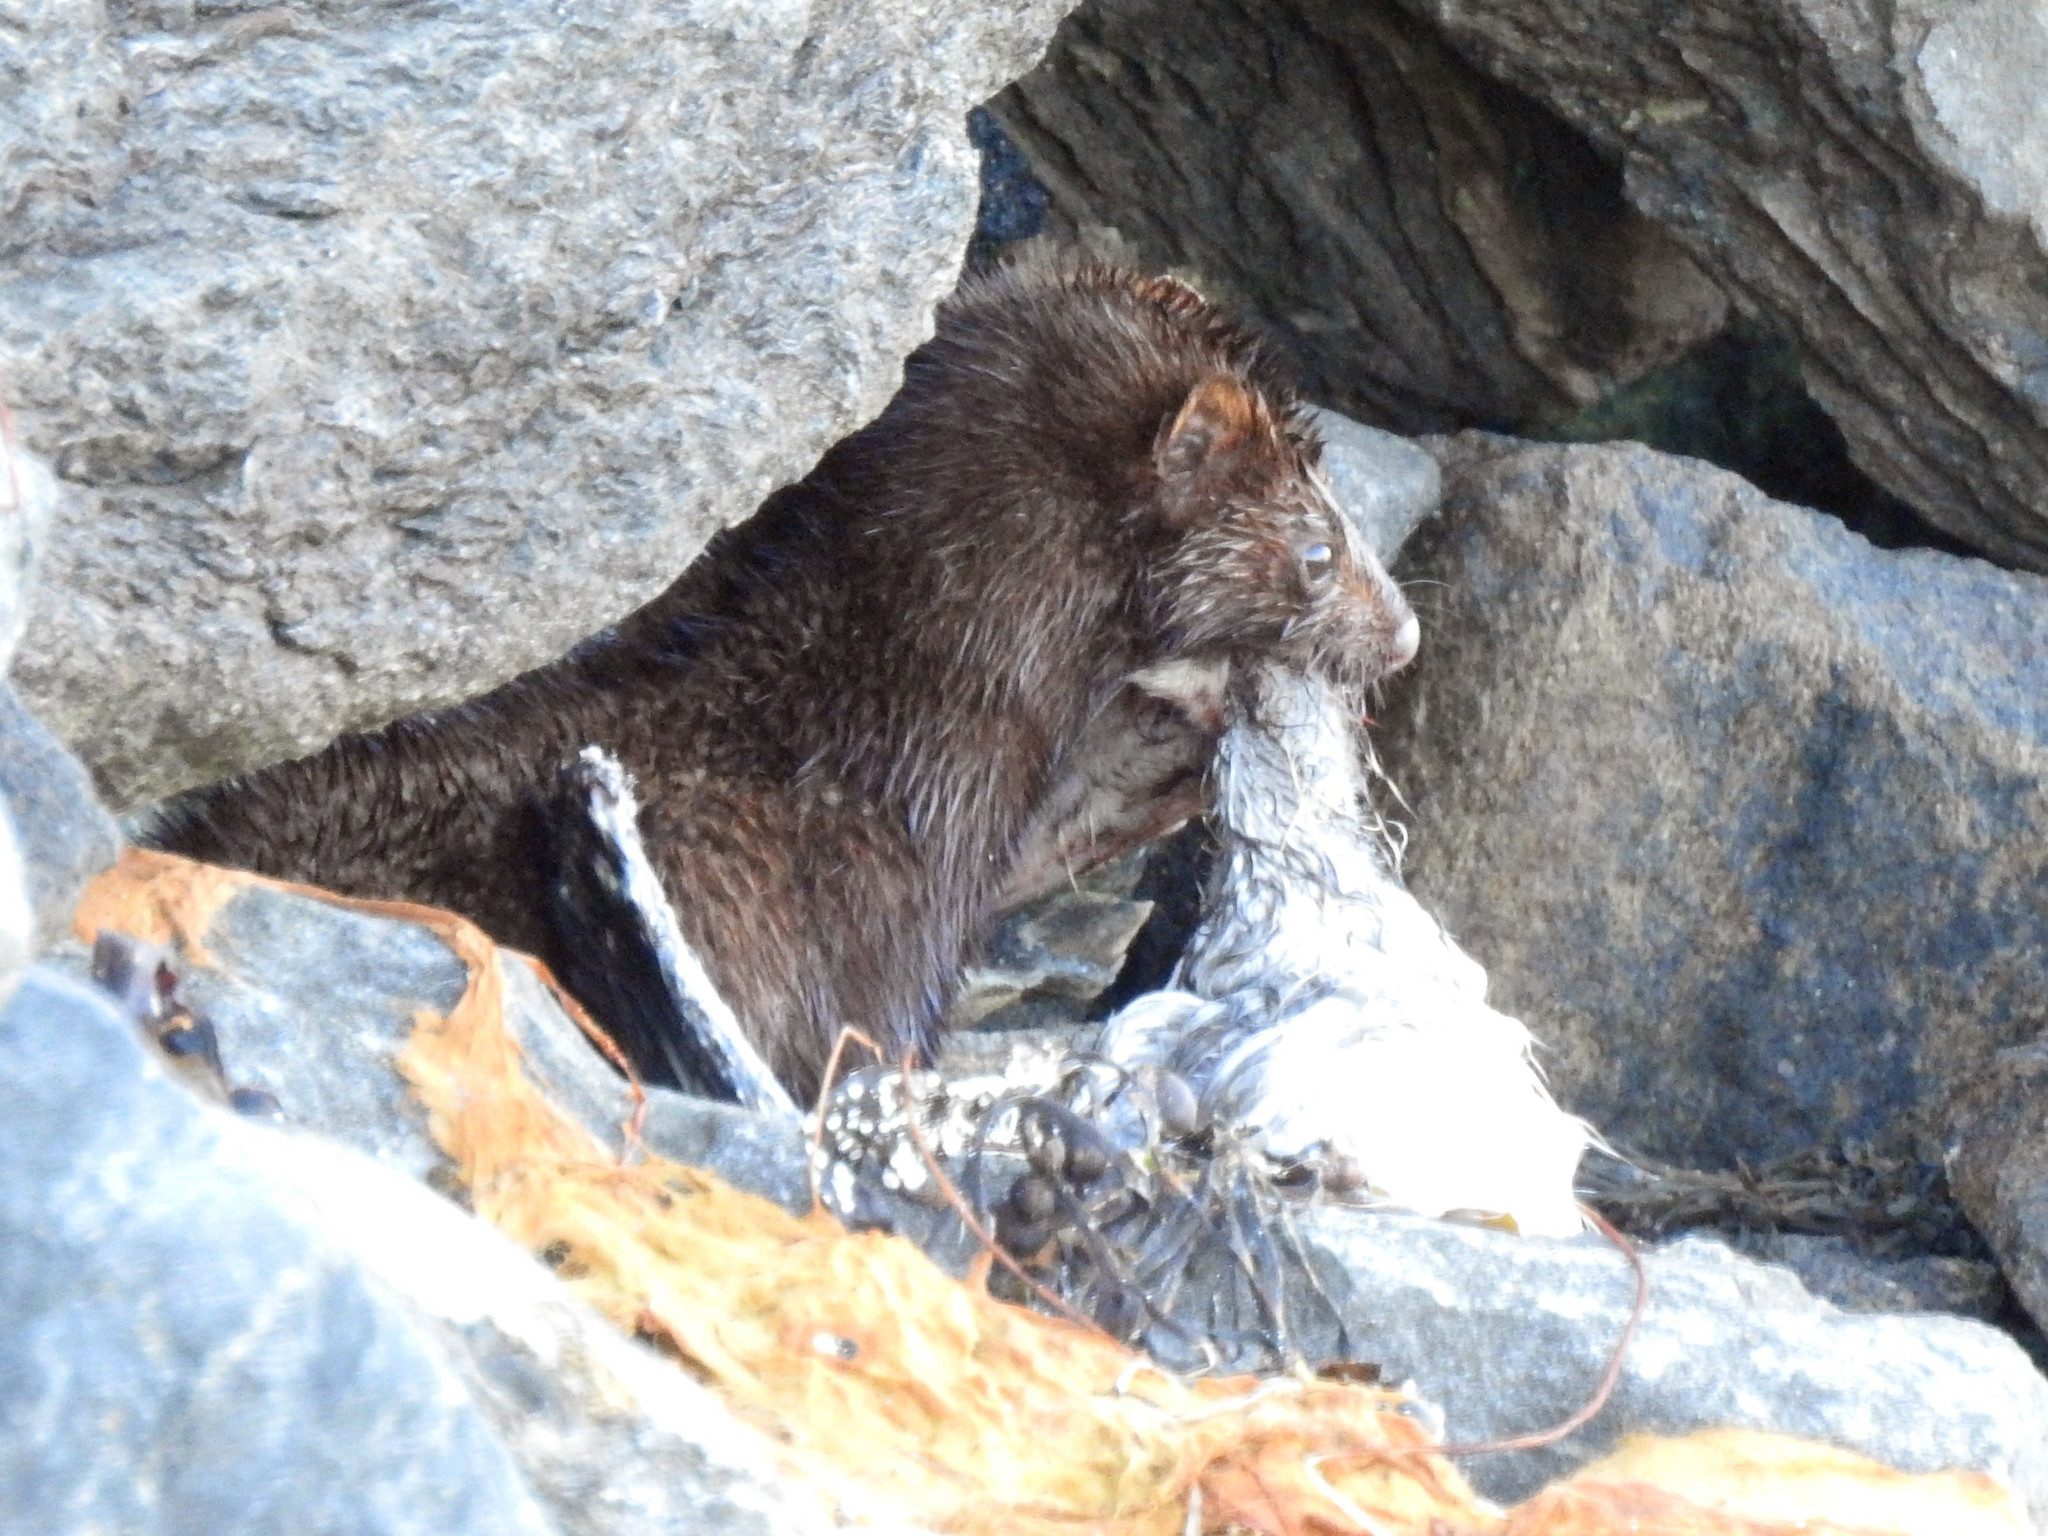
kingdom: Animalia
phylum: Chordata
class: Mammalia
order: Carnivora
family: Mustelidae
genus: Mustela
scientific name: Mustela
